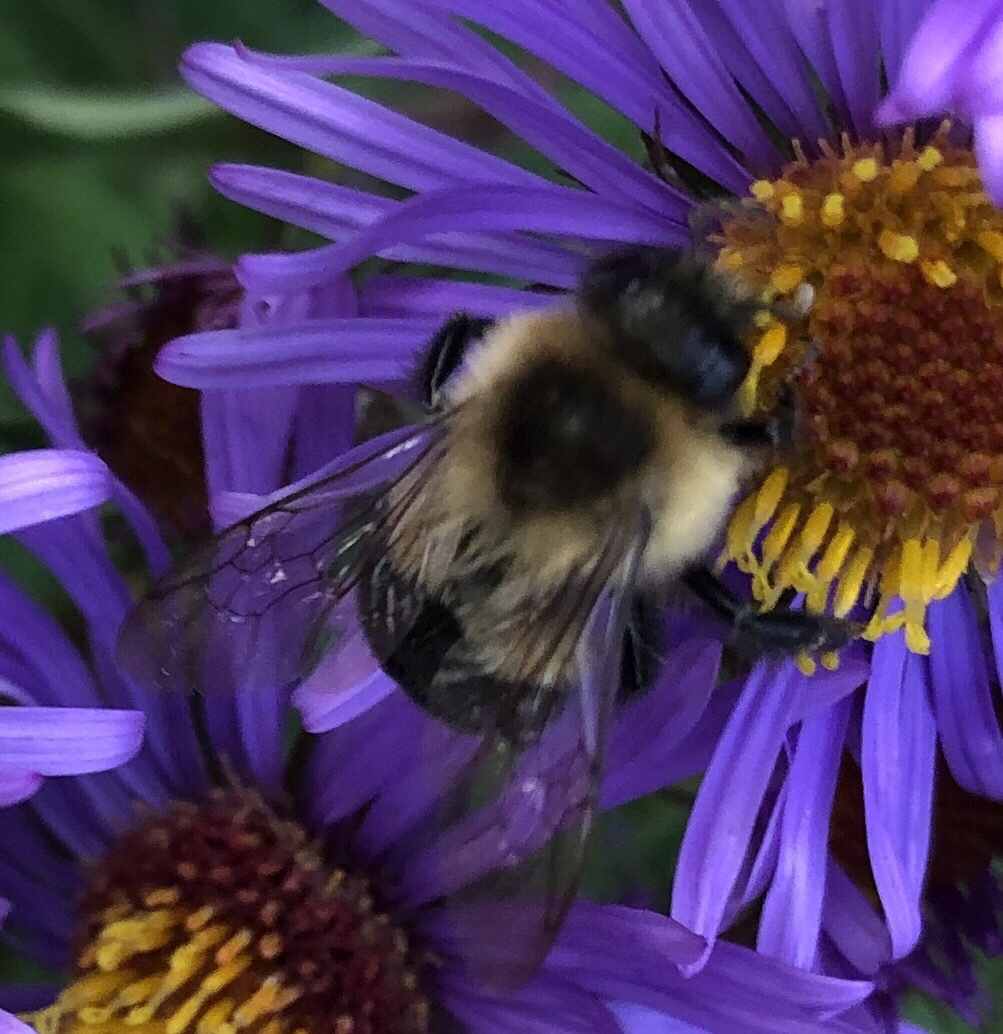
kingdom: Animalia
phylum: Arthropoda
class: Insecta
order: Hymenoptera
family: Apidae
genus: Bombus
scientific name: Bombus impatiens
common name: Common eastern bumble bee
